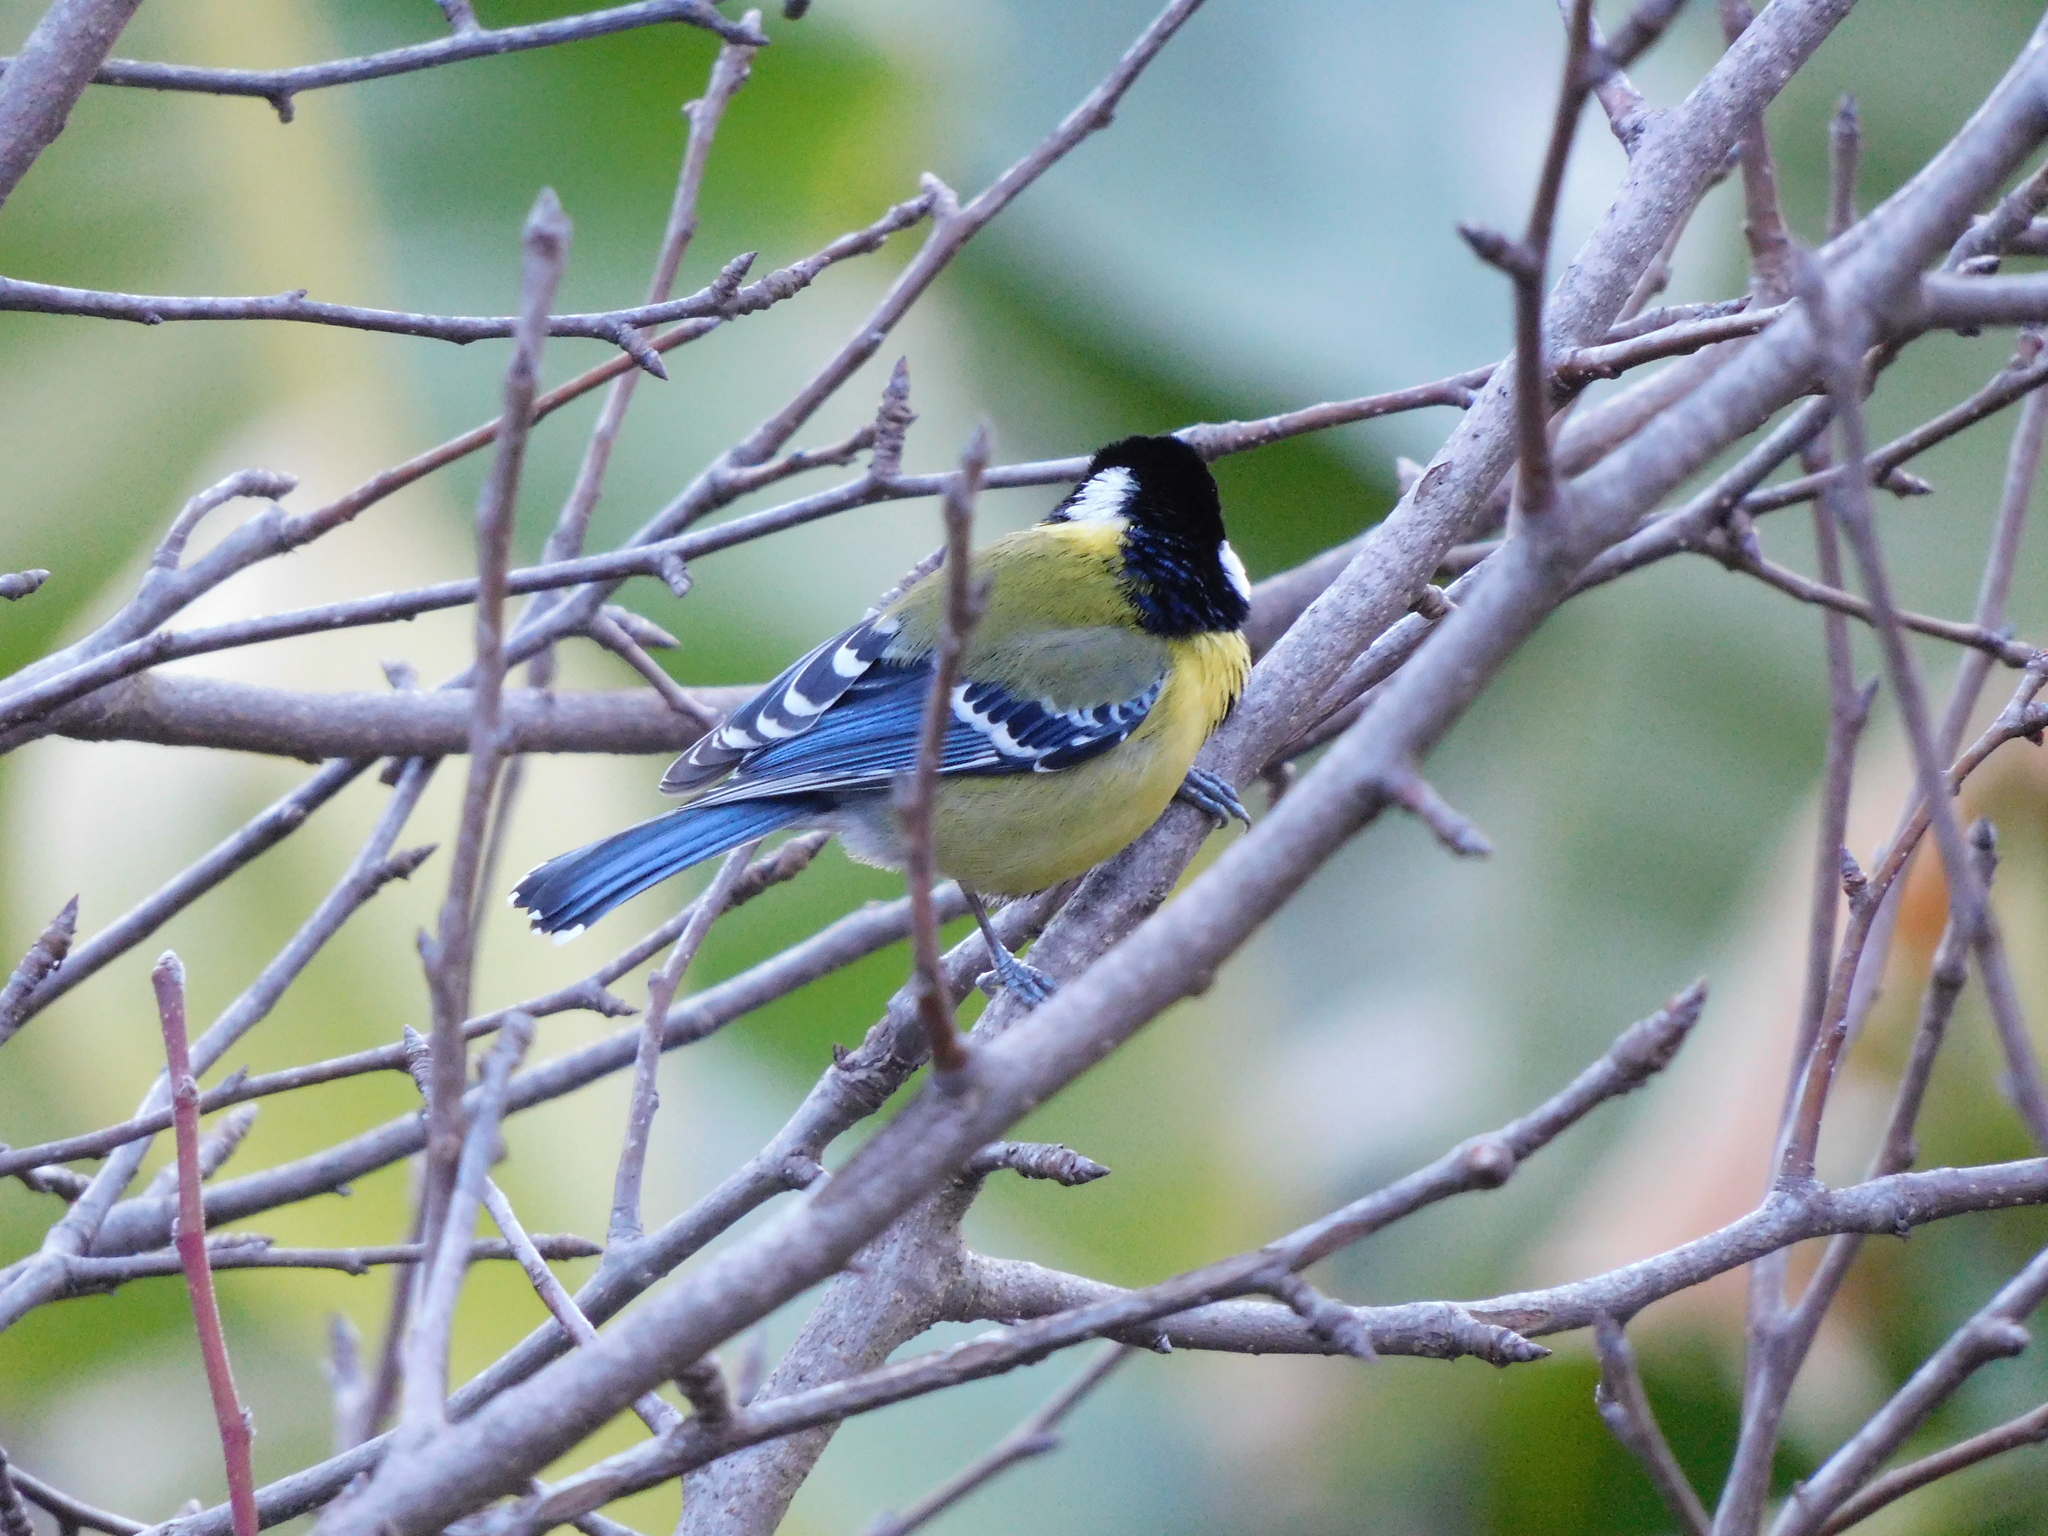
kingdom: Animalia
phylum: Chordata
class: Aves
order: Passeriformes
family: Paridae
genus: Parus
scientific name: Parus monticolus
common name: Green-backed tit
